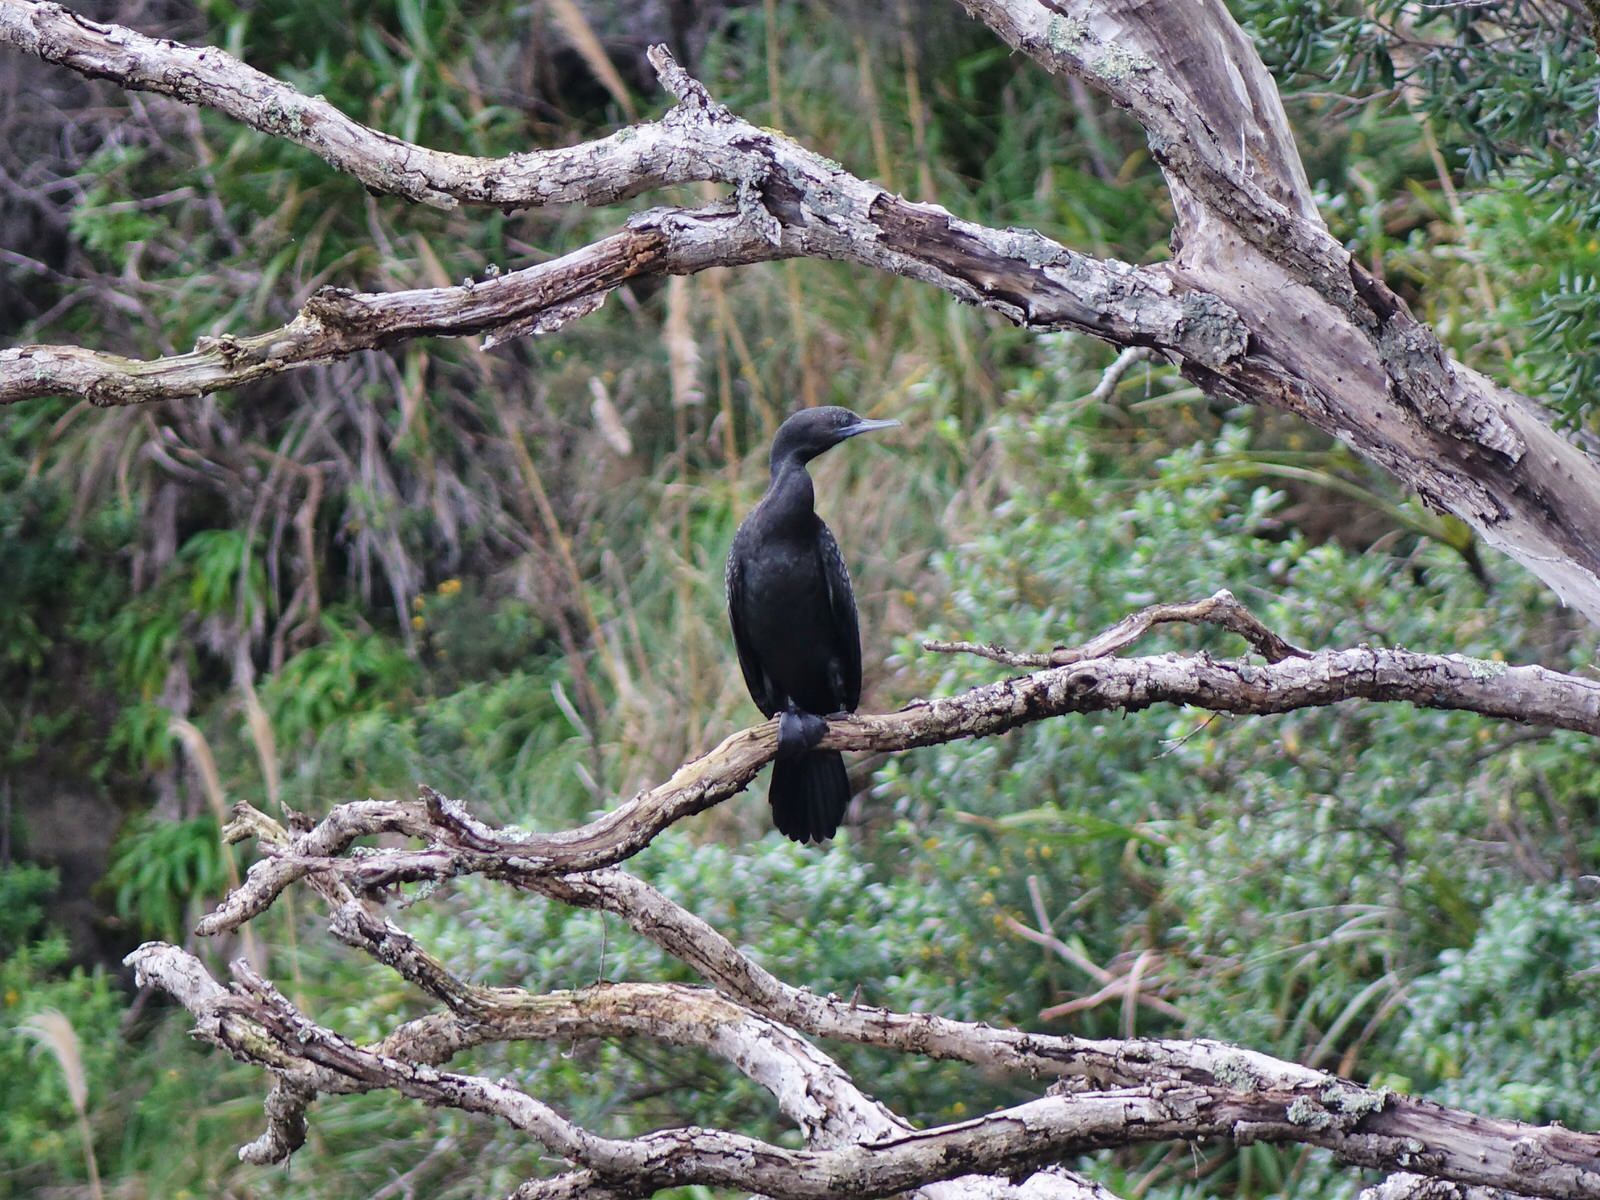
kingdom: Animalia
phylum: Chordata
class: Aves
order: Suliformes
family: Phalacrocoracidae
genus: Phalacrocorax
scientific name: Phalacrocorax sulcirostris
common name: Little black cormorant
